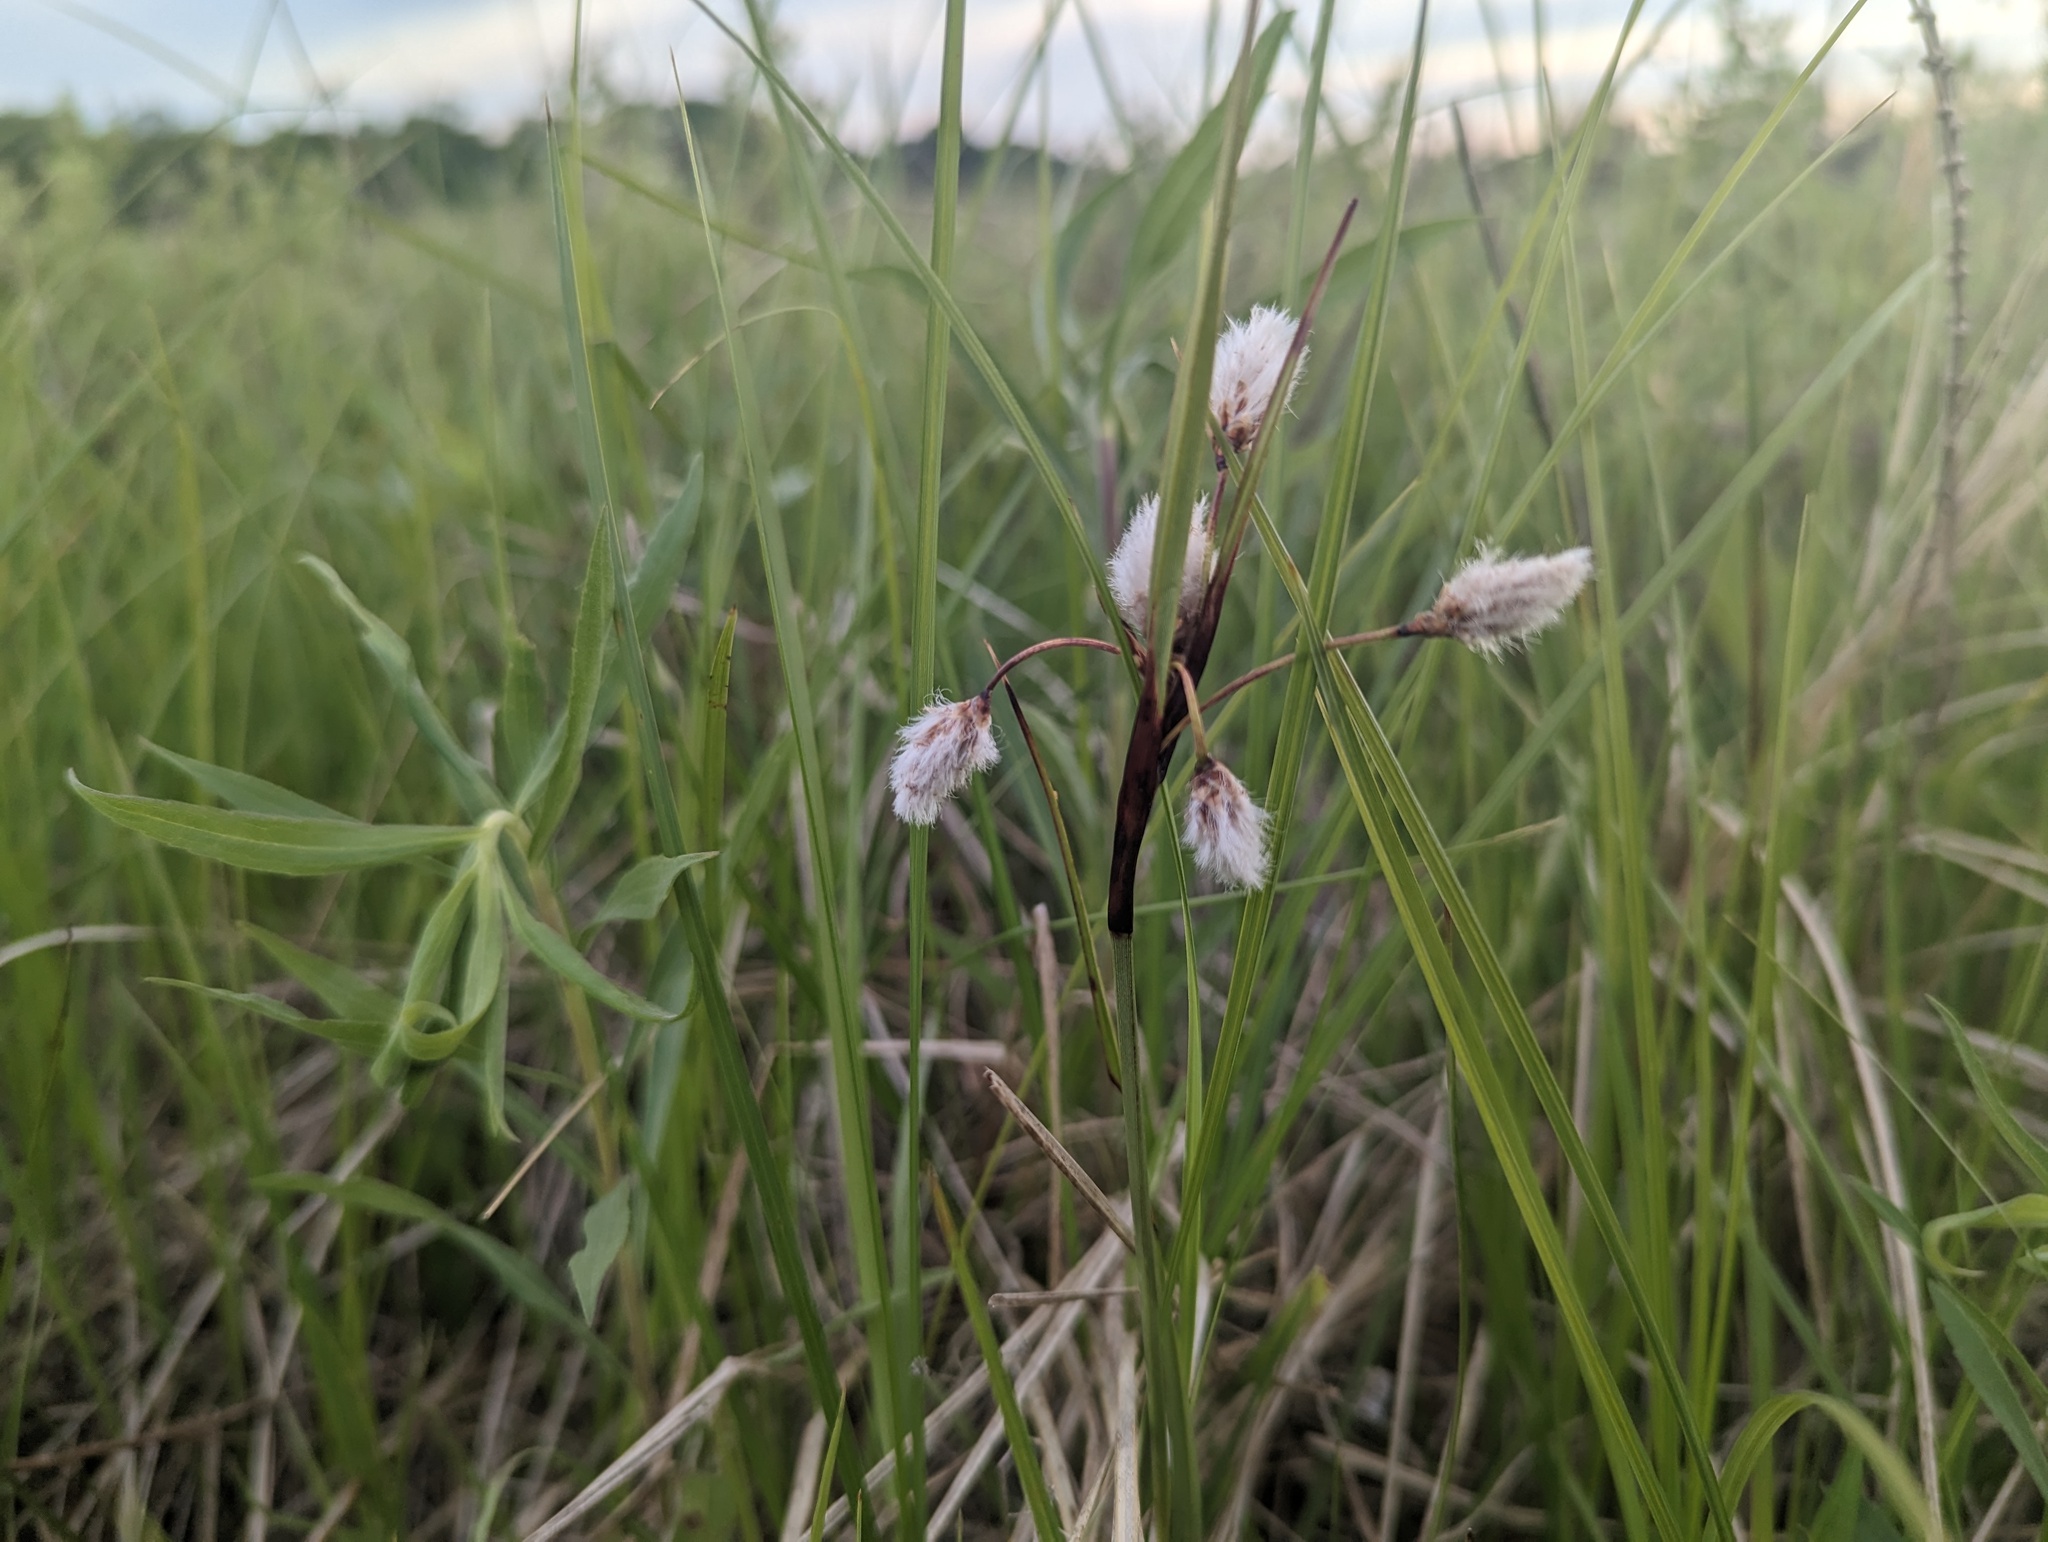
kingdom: Plantae
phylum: Tracheophyta
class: Liliopsida
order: Poales
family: Cyperaceae
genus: Eriophorum
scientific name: Eriophorum angustifolium
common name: Common cottongrass
